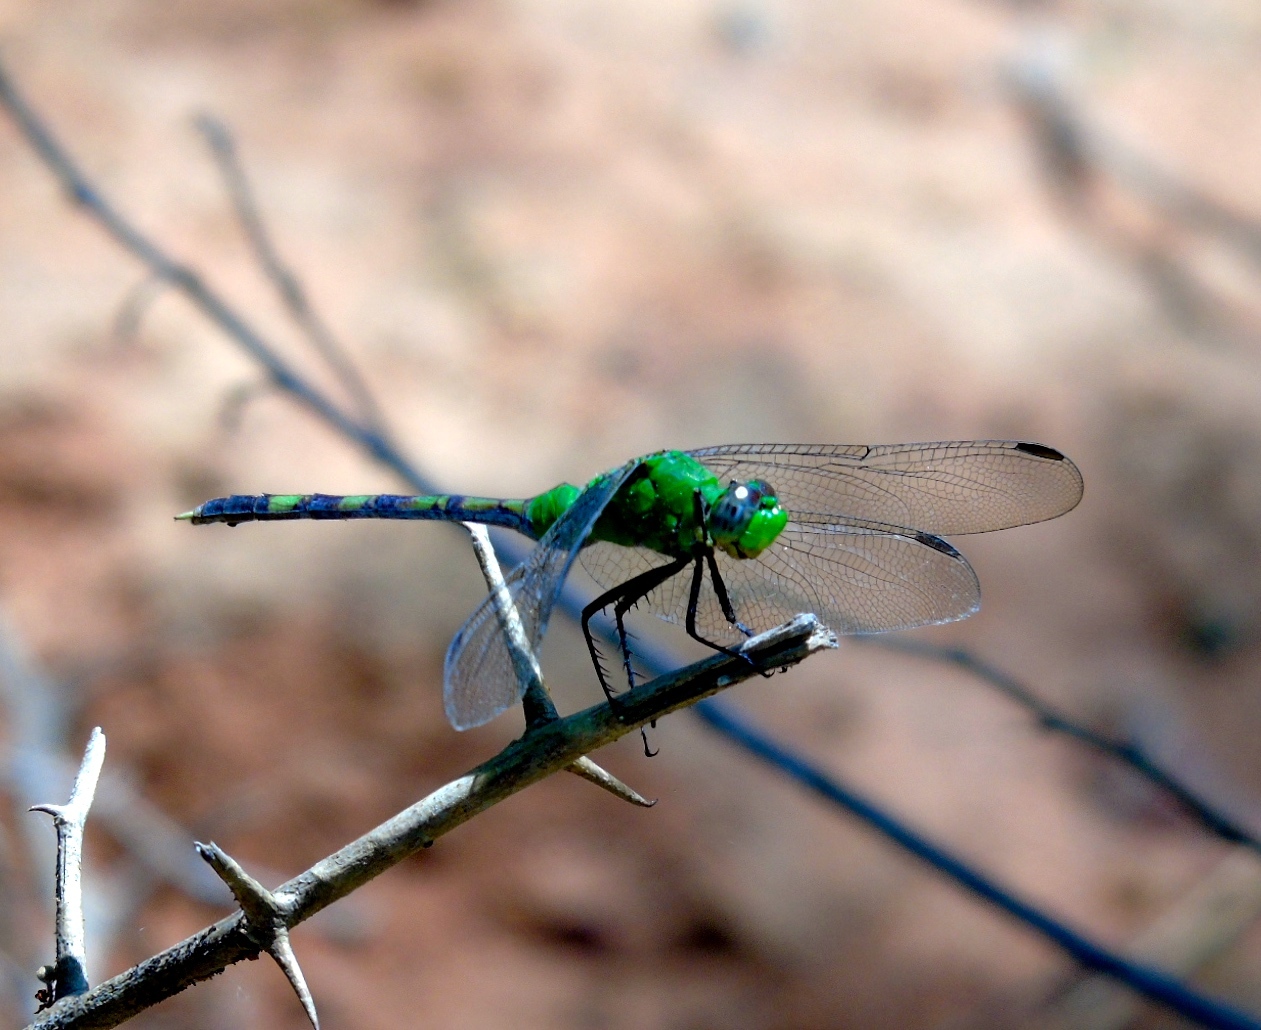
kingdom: Animalia
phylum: Arthropoda
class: Insecta
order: Odonata
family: Libellulidae
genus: Erythemis
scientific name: Erythemis vesiculosa
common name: Great pondhawk
